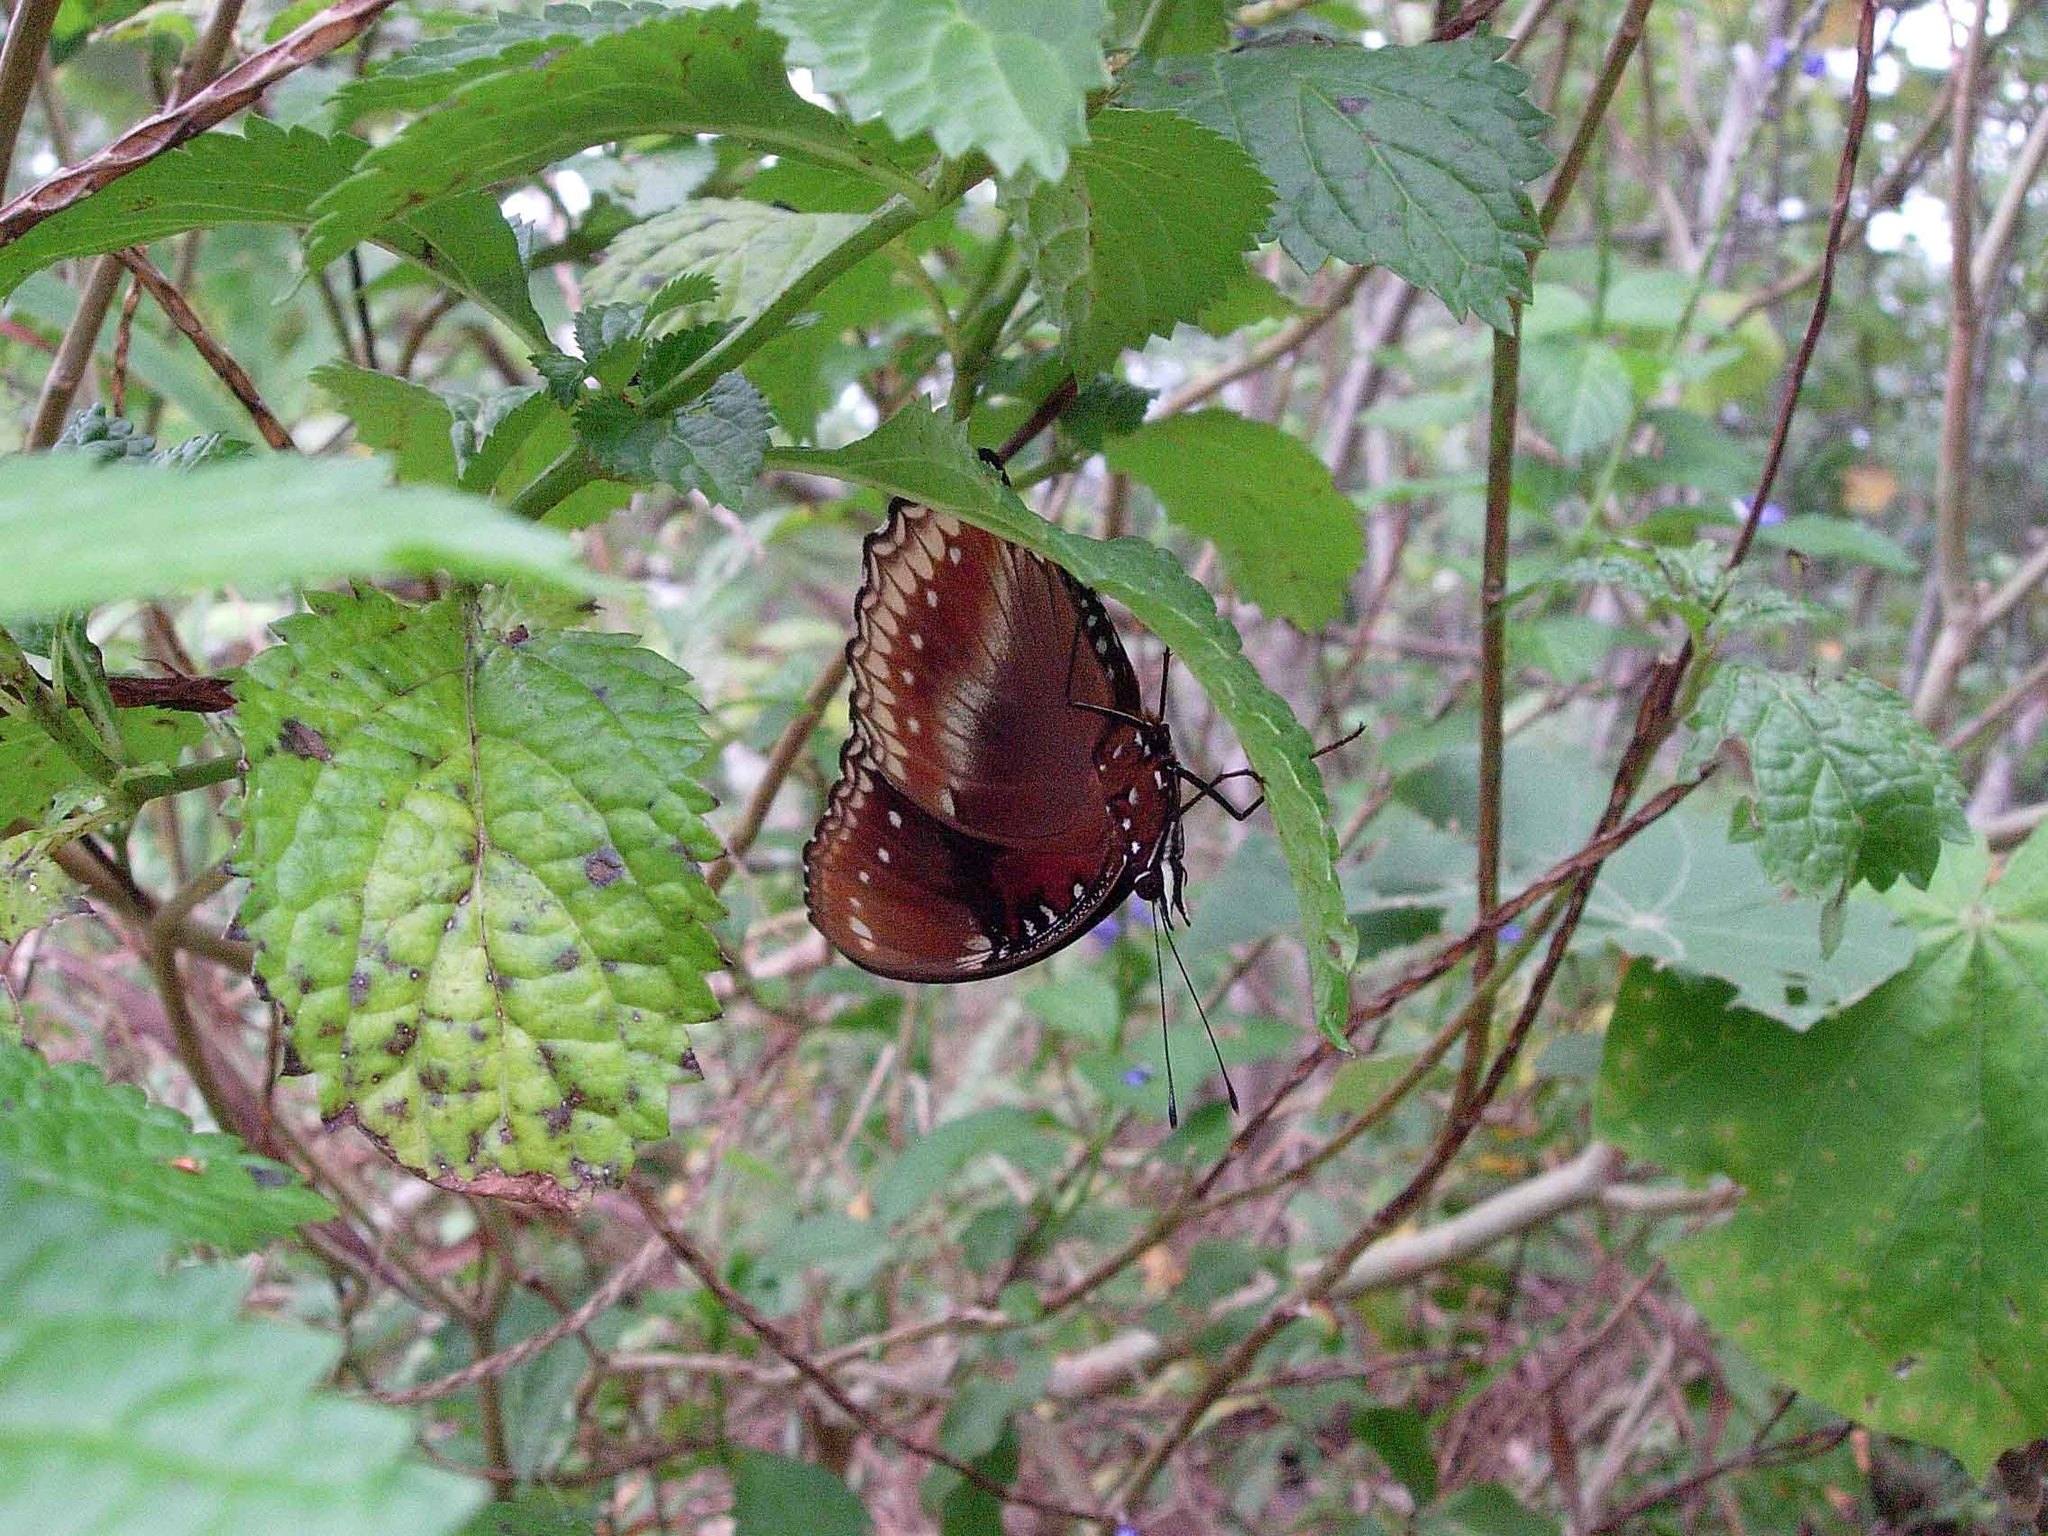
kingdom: Animalia
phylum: Arthropoda
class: Insecta
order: Lepidoptera
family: Nymphalidae
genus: Hypolimnas
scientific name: Hypolimnas bolina
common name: Great eggfly
